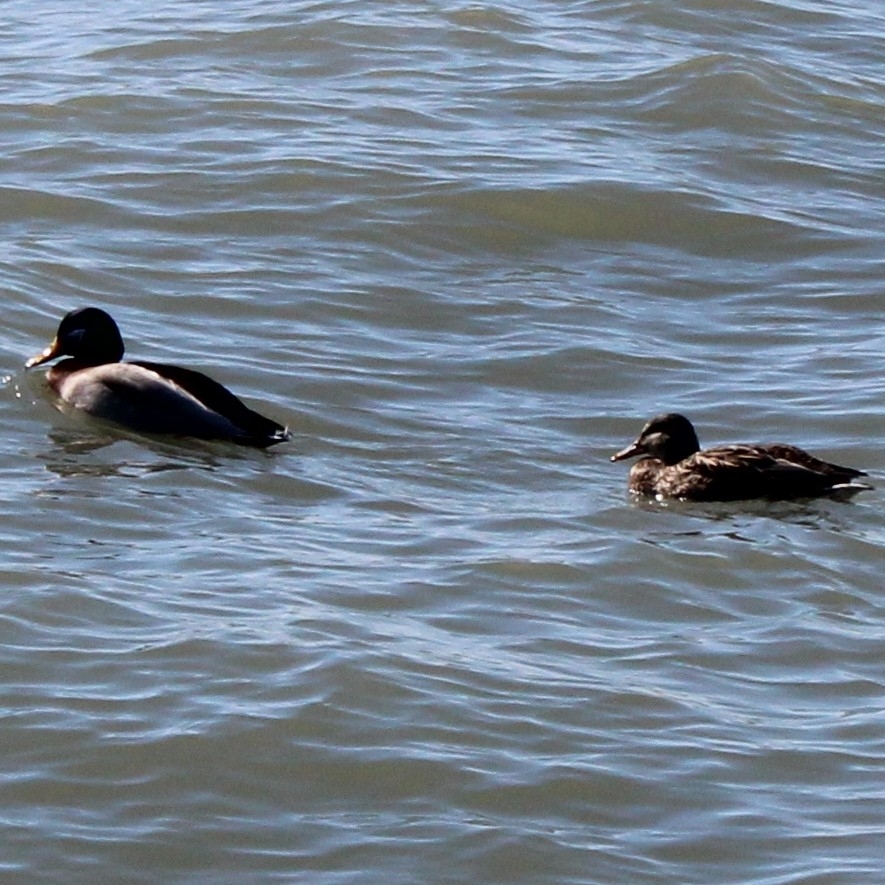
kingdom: Animalia
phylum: Chordata
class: Aves
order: Anseriformes
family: Anatidae
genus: Anas
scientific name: Anas platyrhynchos
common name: Mallard
